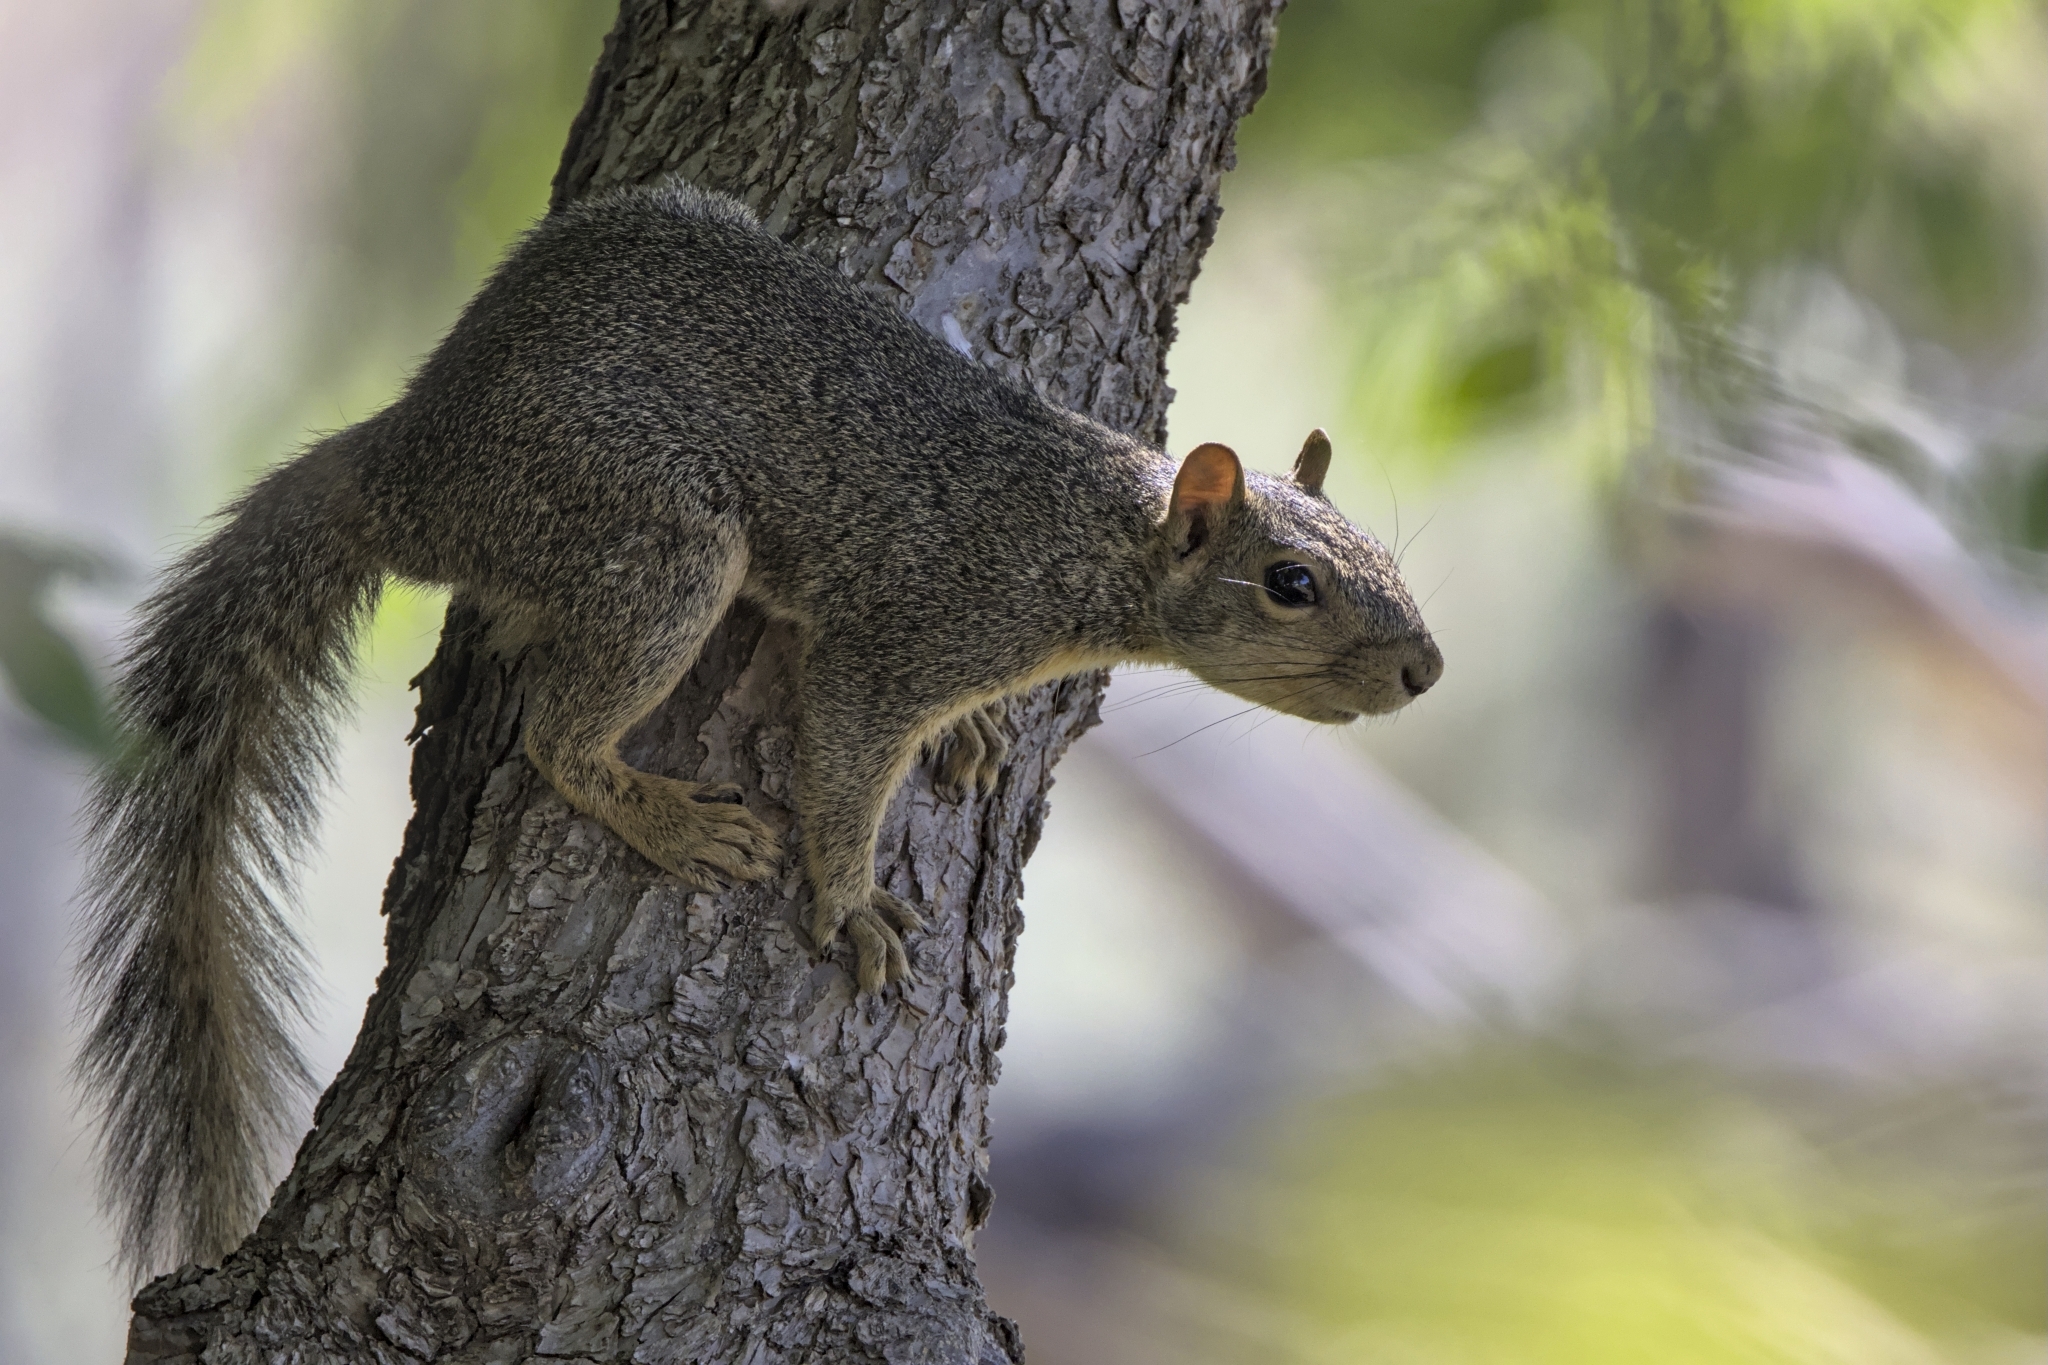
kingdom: Animalia
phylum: Chordata
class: Mammalia
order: Rodentia
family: Sciuridae
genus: Sciurus
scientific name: Sciurus niger
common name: Fox squirrel
